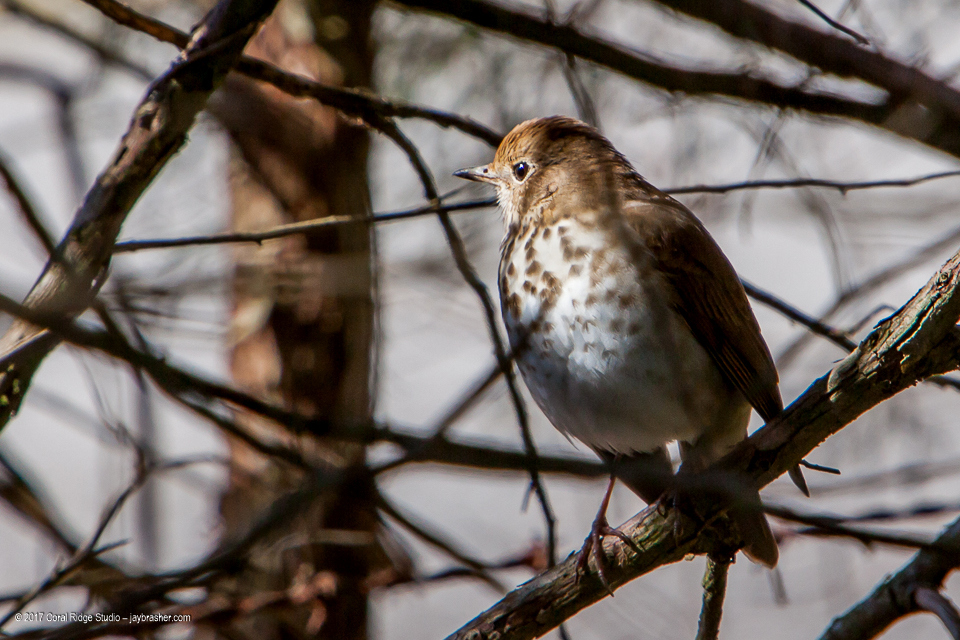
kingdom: Animalia
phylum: Chordata
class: Aves
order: Passeriformes
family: Turdidae
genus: Catharus
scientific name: Catharus guttatus
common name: Hermit thrush
